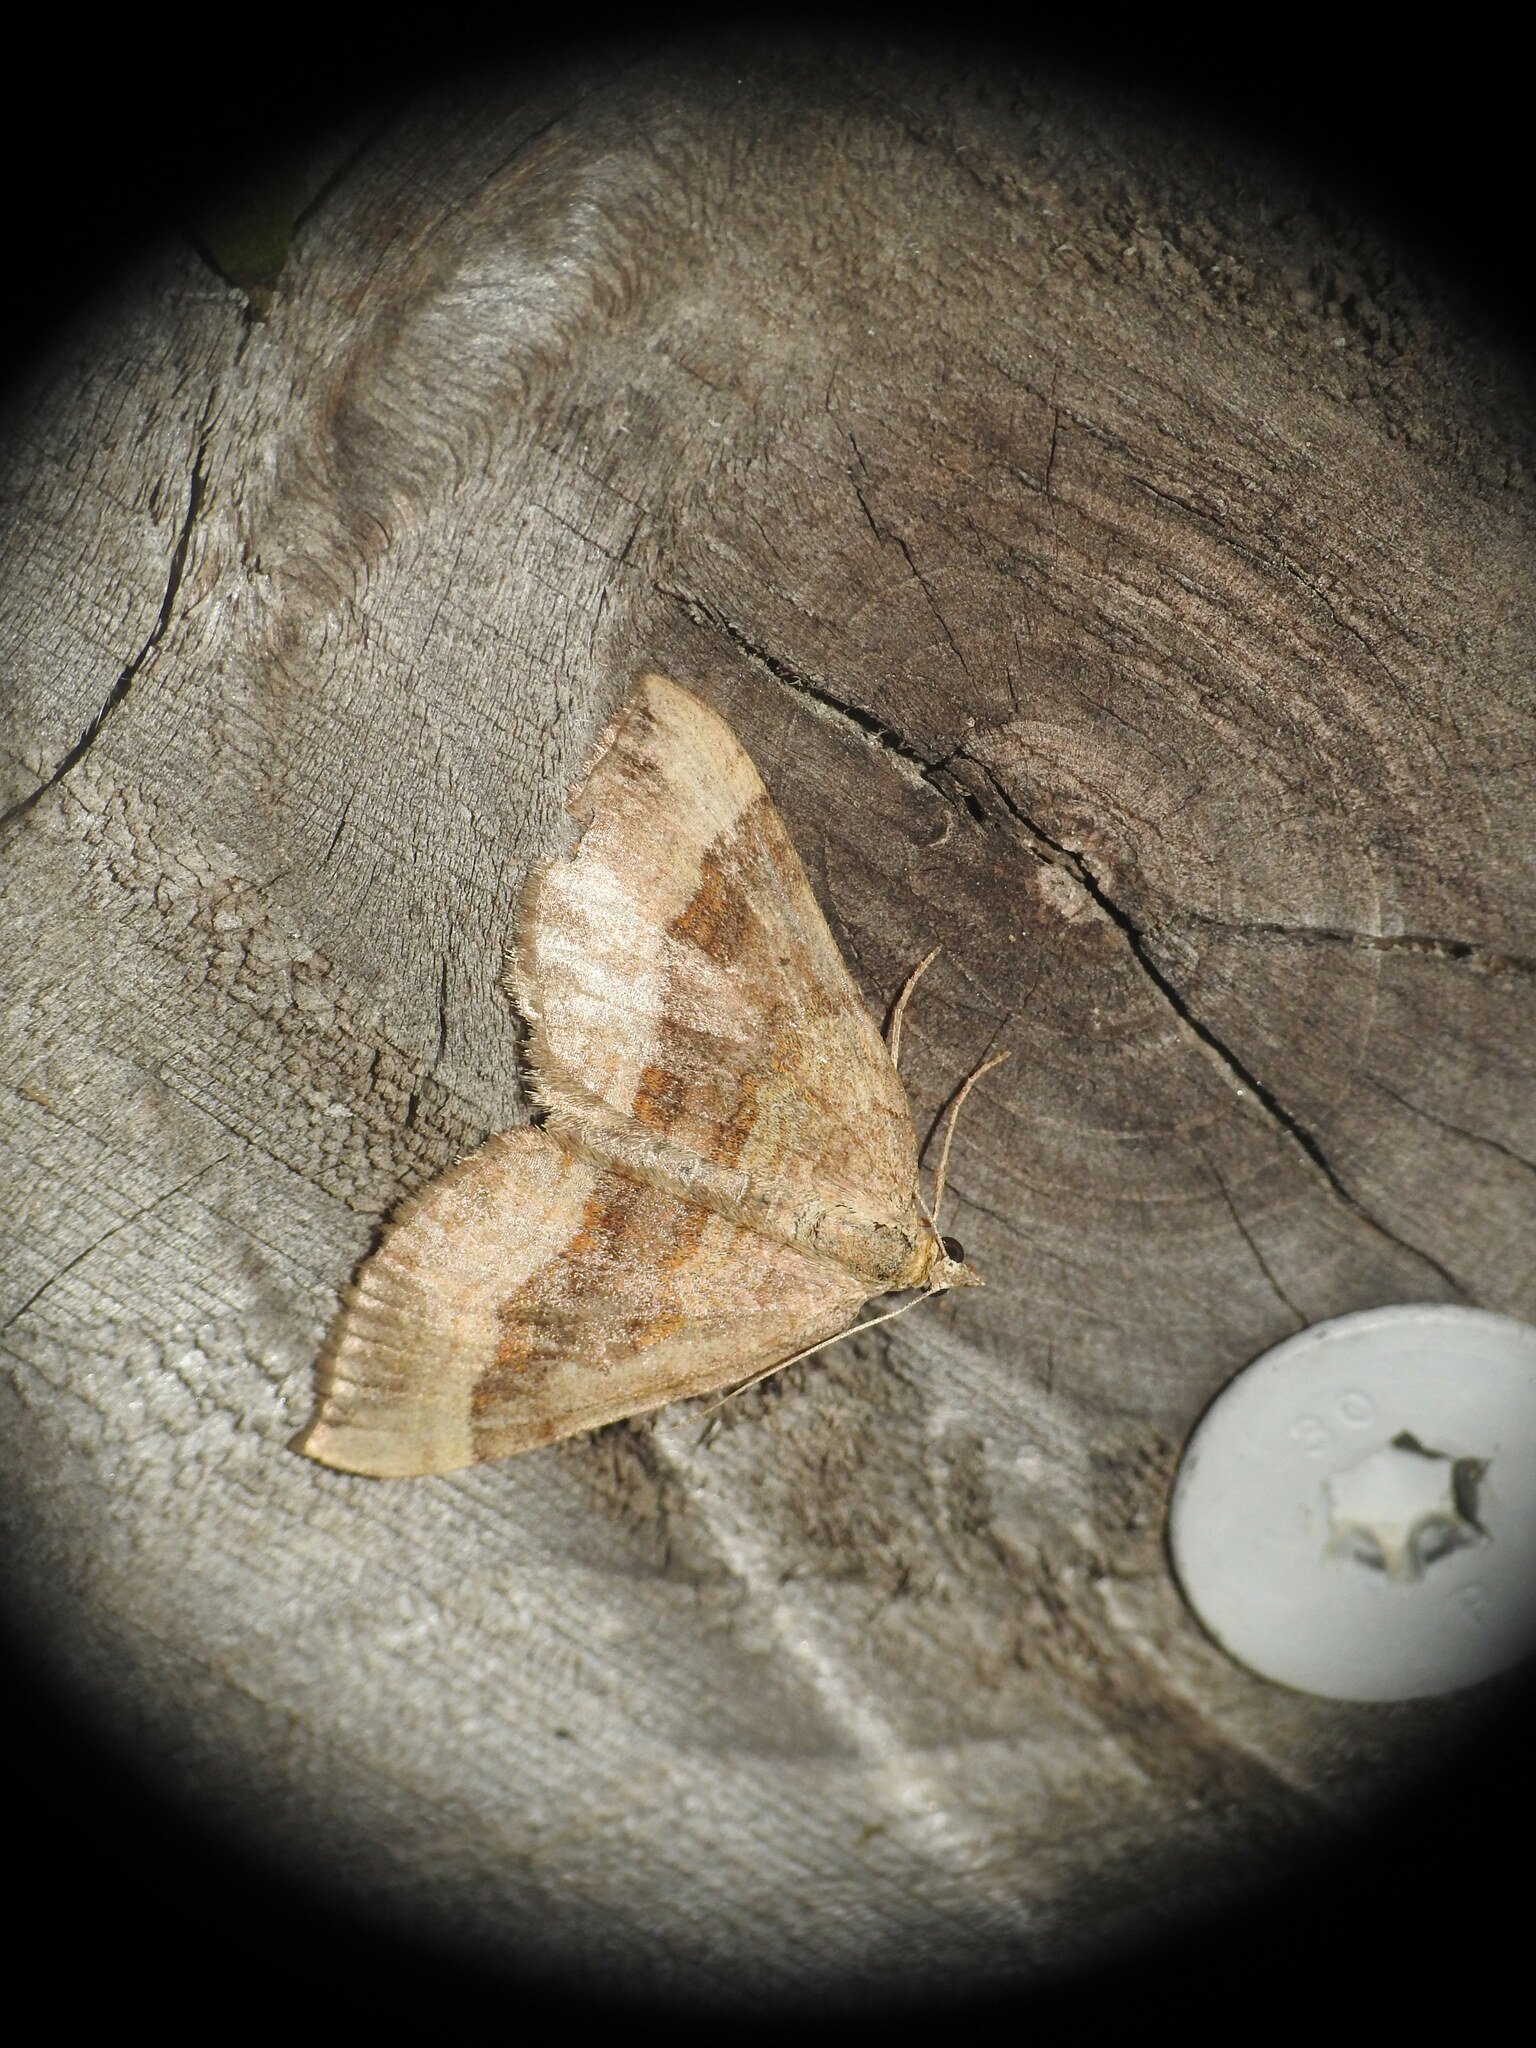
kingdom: Animalia
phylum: Arthropoda
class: Insecta
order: Lepidoptera
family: Geometridae
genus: Scotopteryx
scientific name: Scotopteryx chenopodiata
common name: Shaded broad-bar
